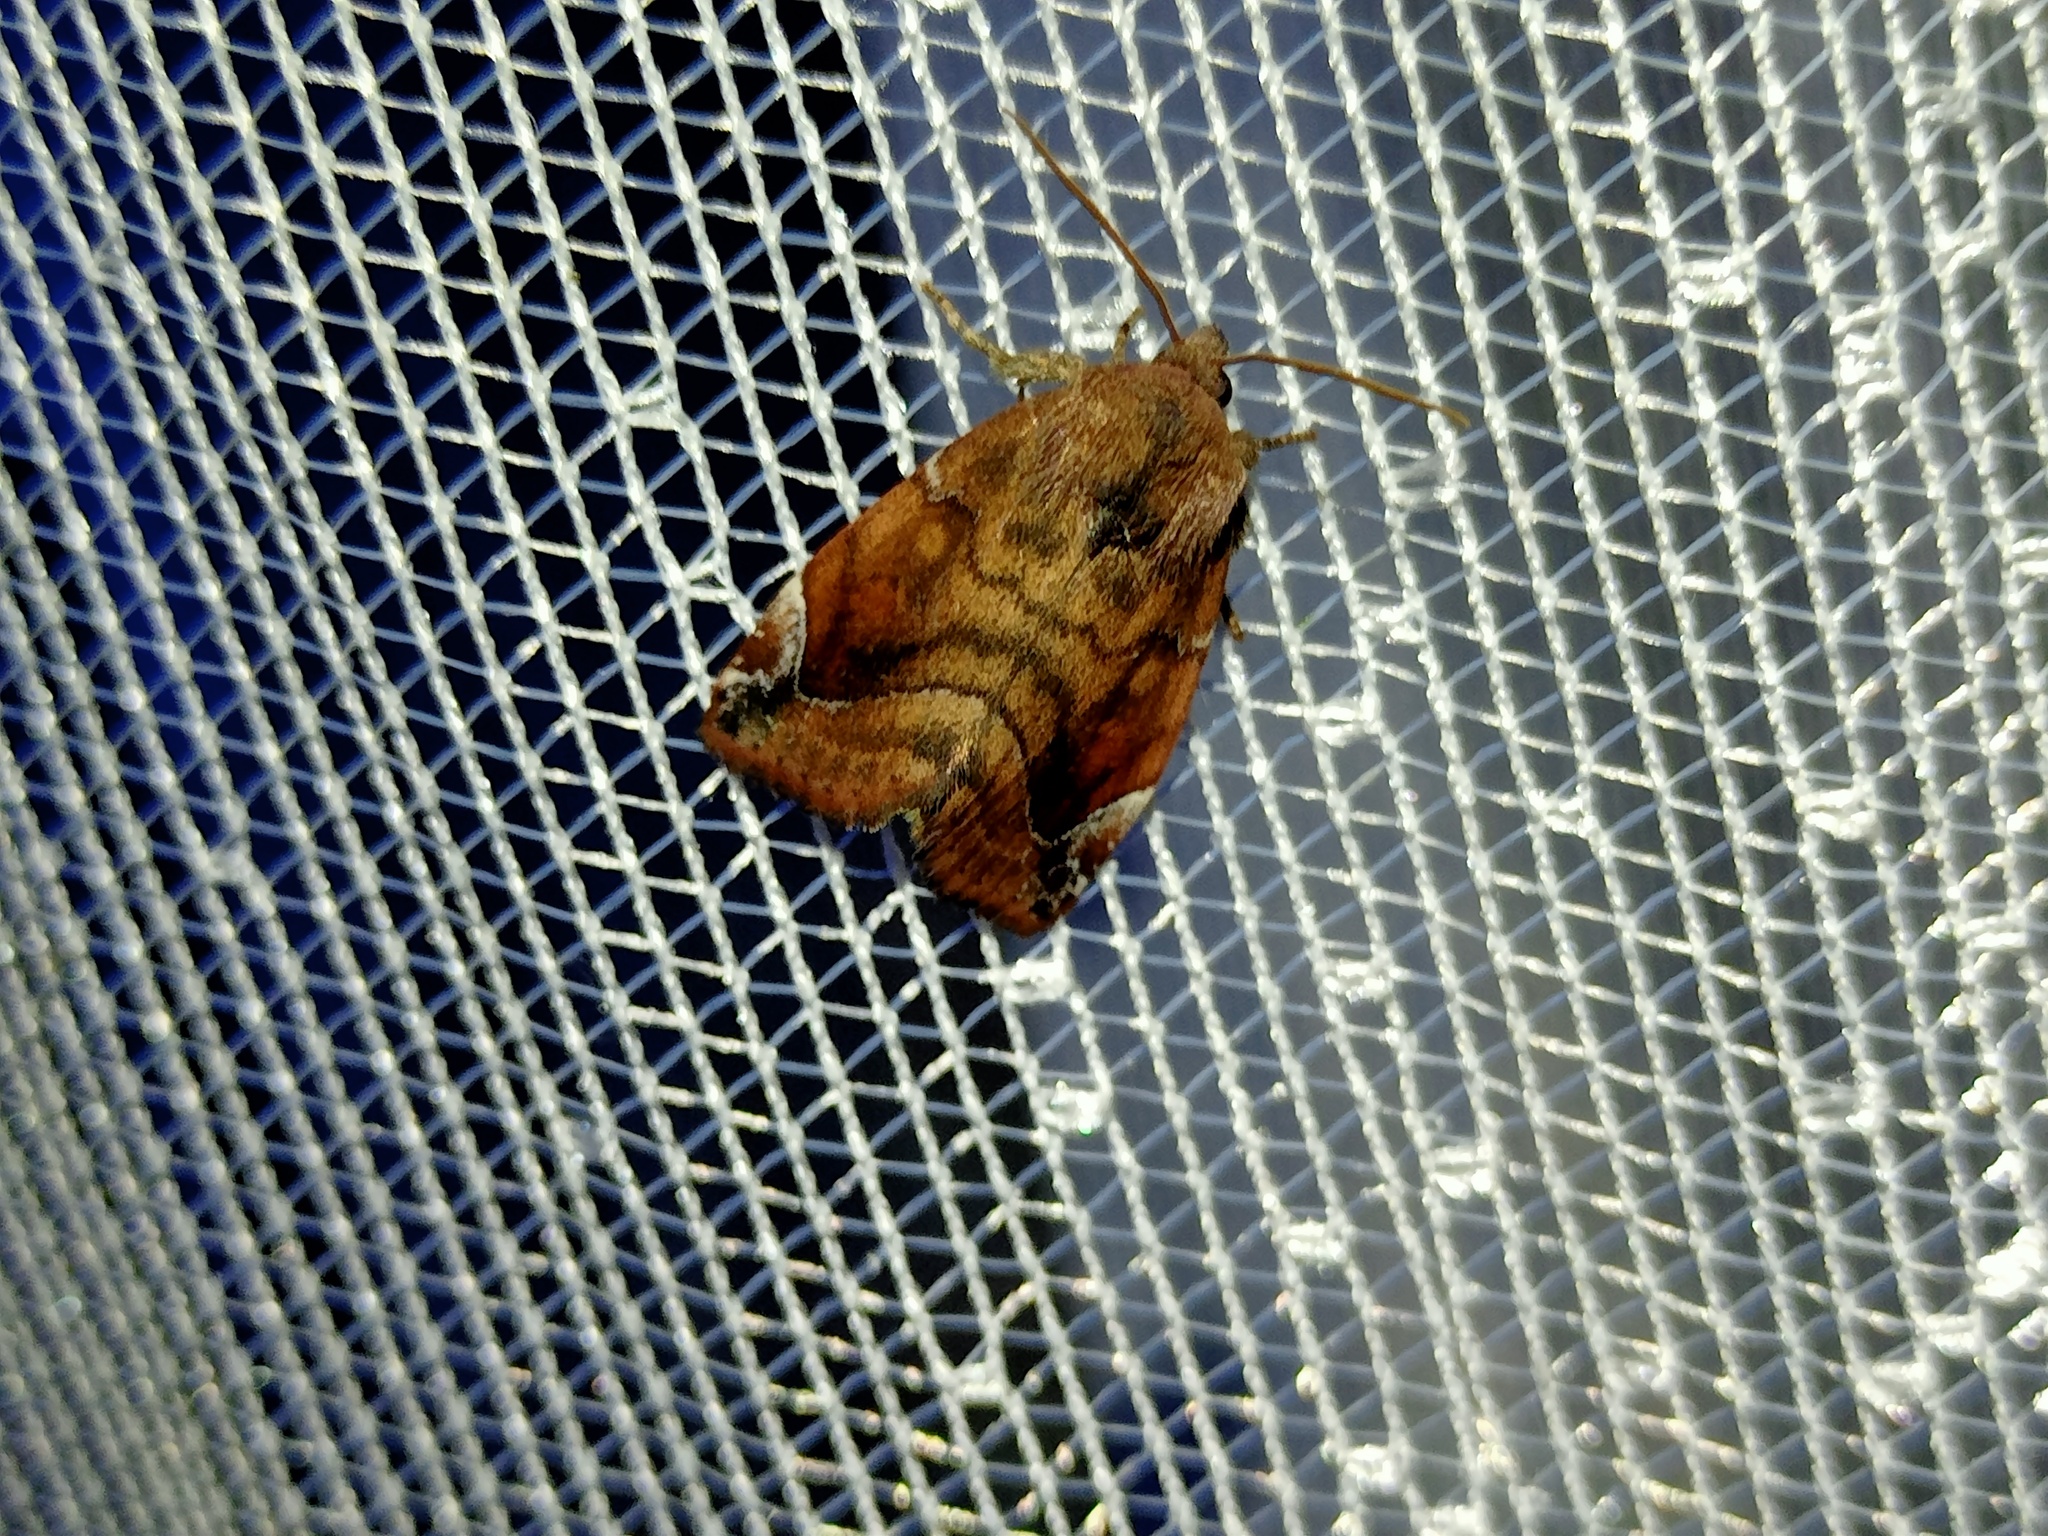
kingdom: Animalia
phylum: Arthropoda
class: Insecta
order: Lepidoptera
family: Noctuidae
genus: Cosmia
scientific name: Cosmia pyralina
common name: Lunar-spotted pinion
